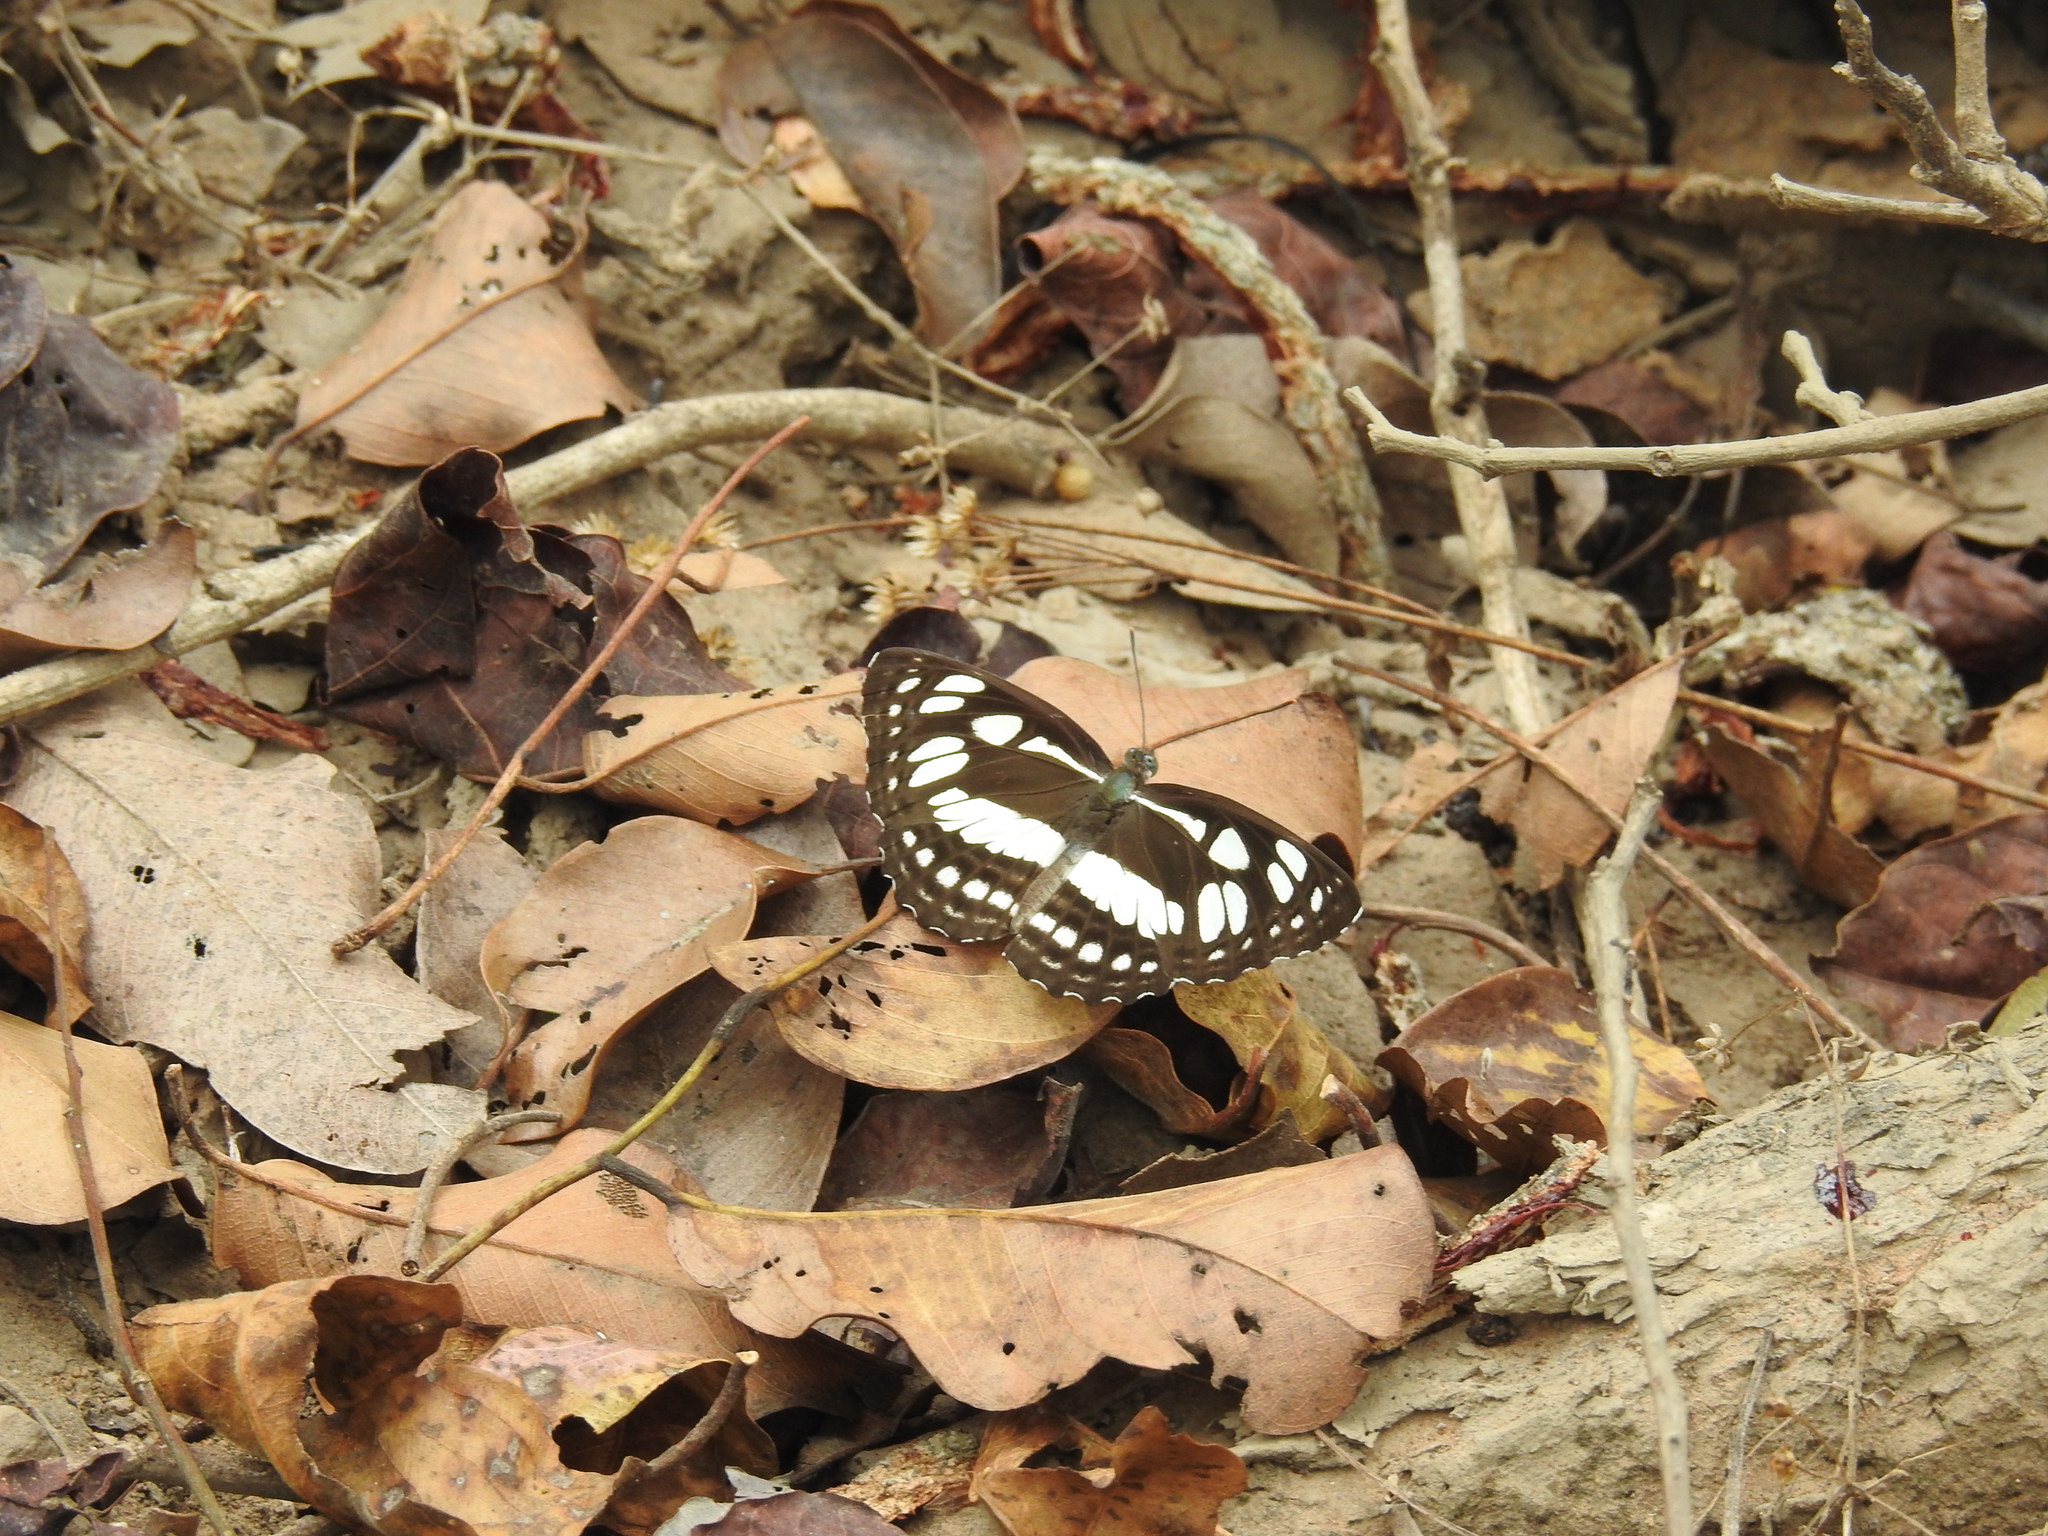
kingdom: Animalia
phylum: Arthropoda
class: Insecta
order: Lepidoptera
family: Nymphalidae
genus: Phaedyma
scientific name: Phaedyma columella
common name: Short banded sailer
